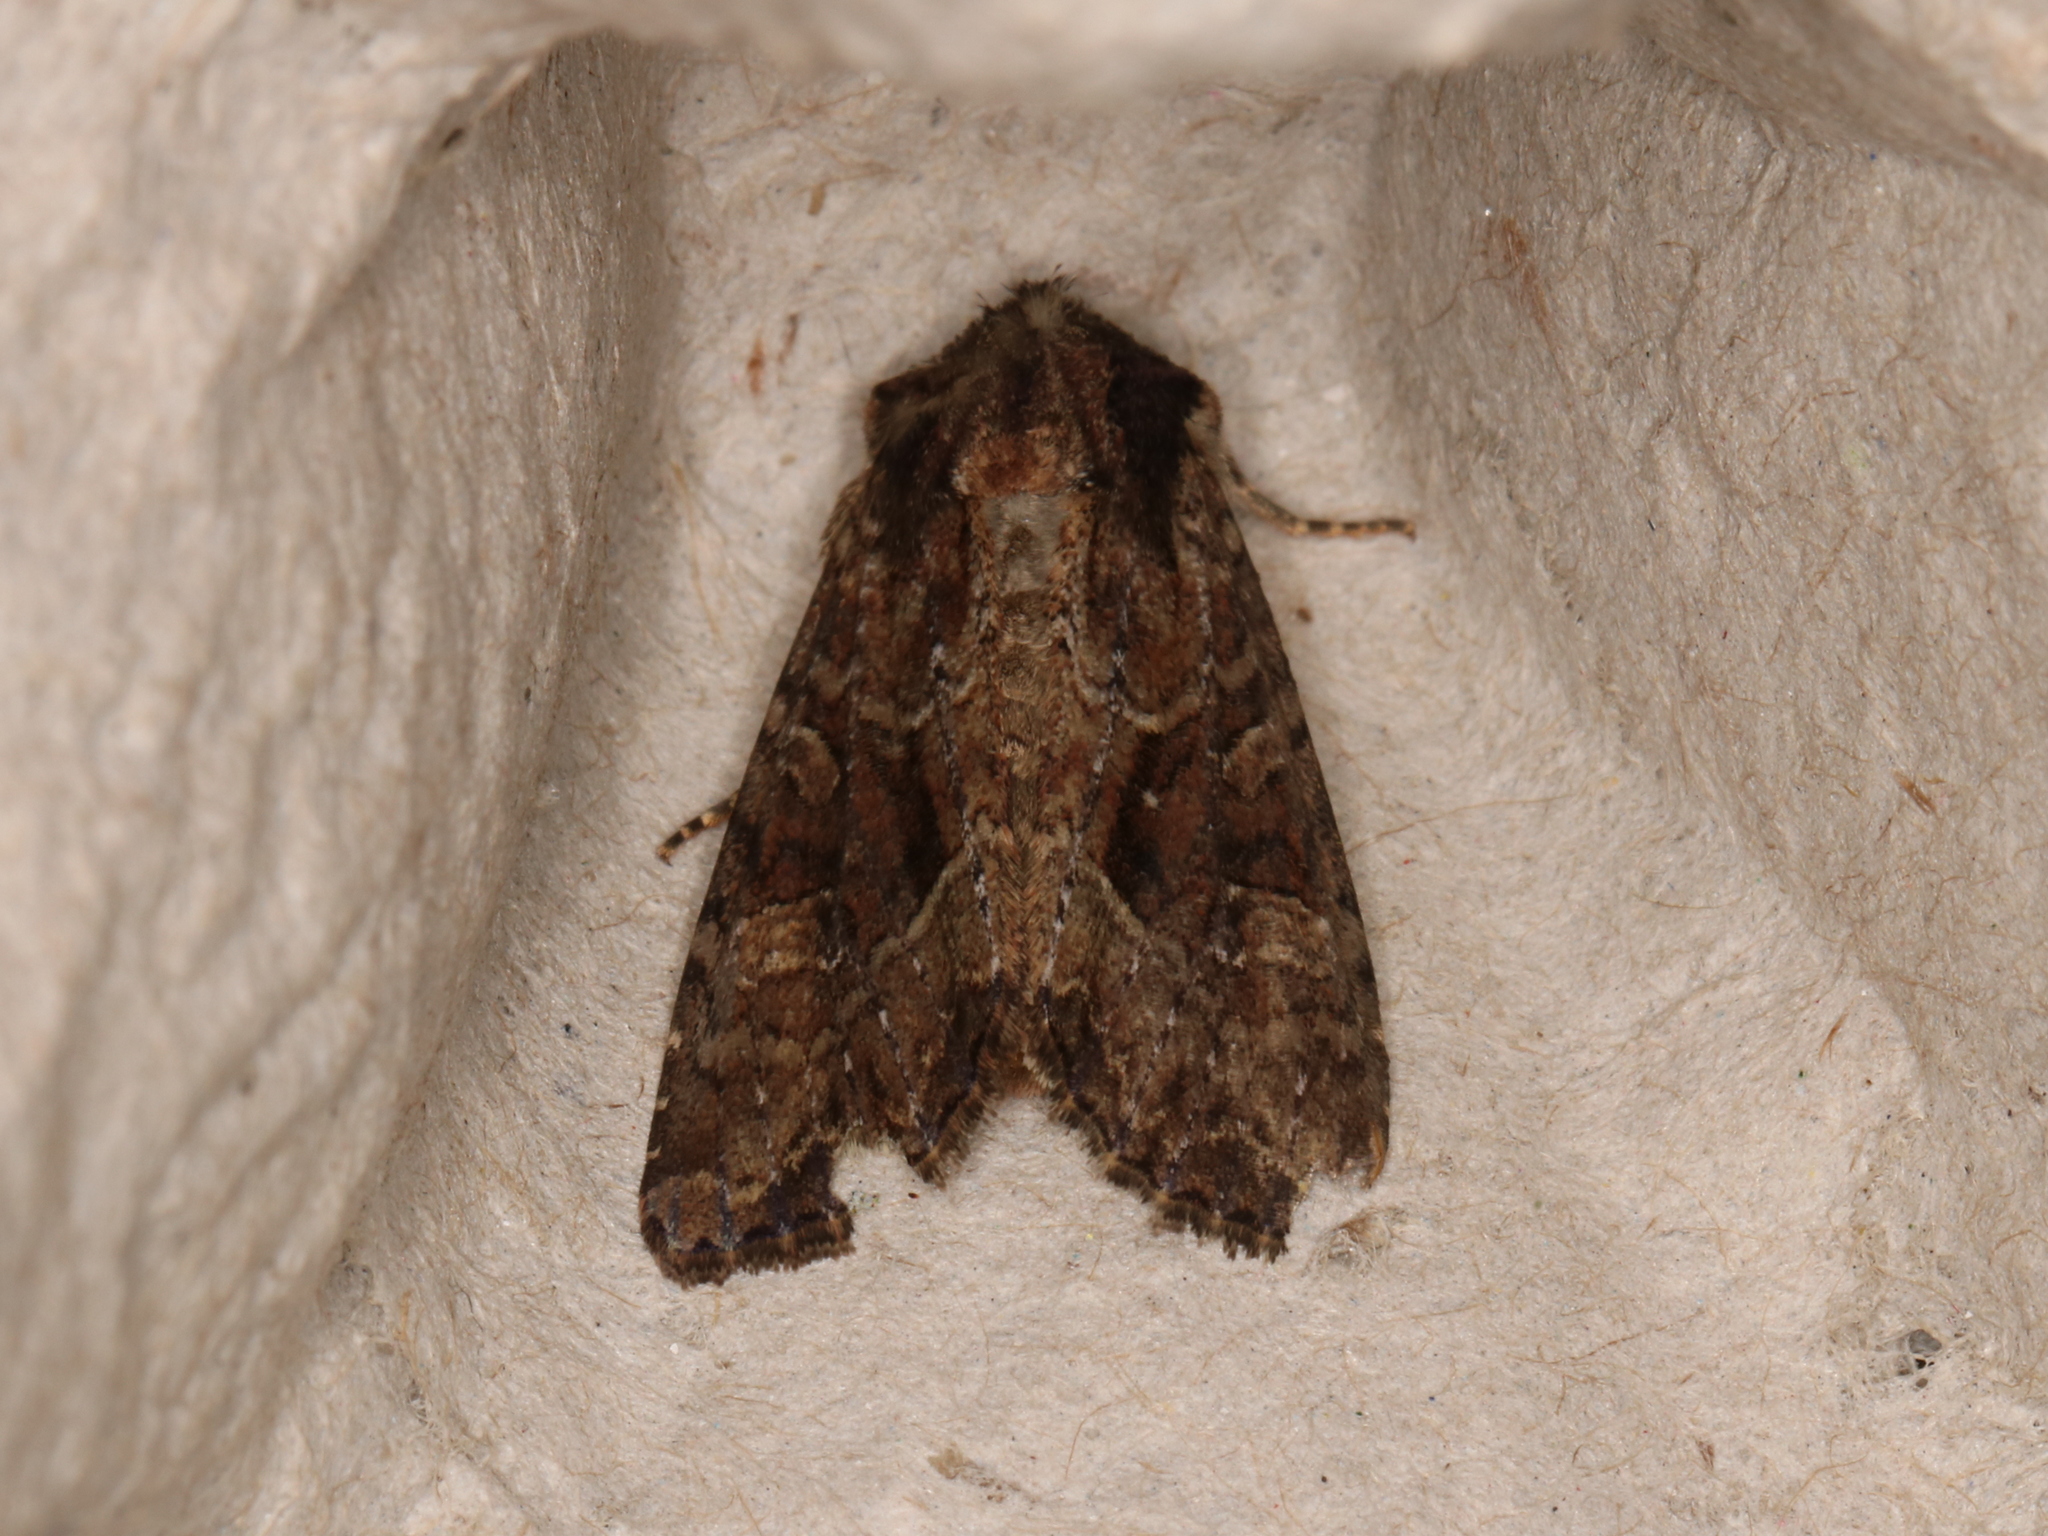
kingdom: Animalia
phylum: Arthropoda
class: Insecta
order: Lepidoptera
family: Noctuidae
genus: Apamea
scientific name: Apamea remissa
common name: Dusky brocade
